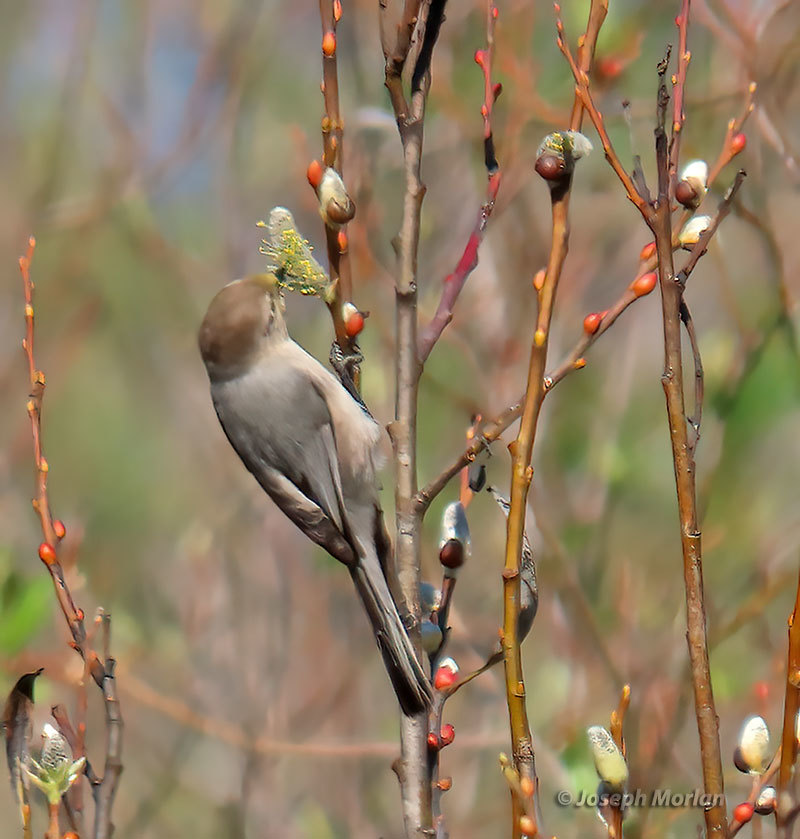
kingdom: Animalia
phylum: Chordata
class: Aves
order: Passeriformes
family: Aegithalidae
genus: Psaltriparus
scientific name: Psaltriparus minimus
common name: American bushtit
